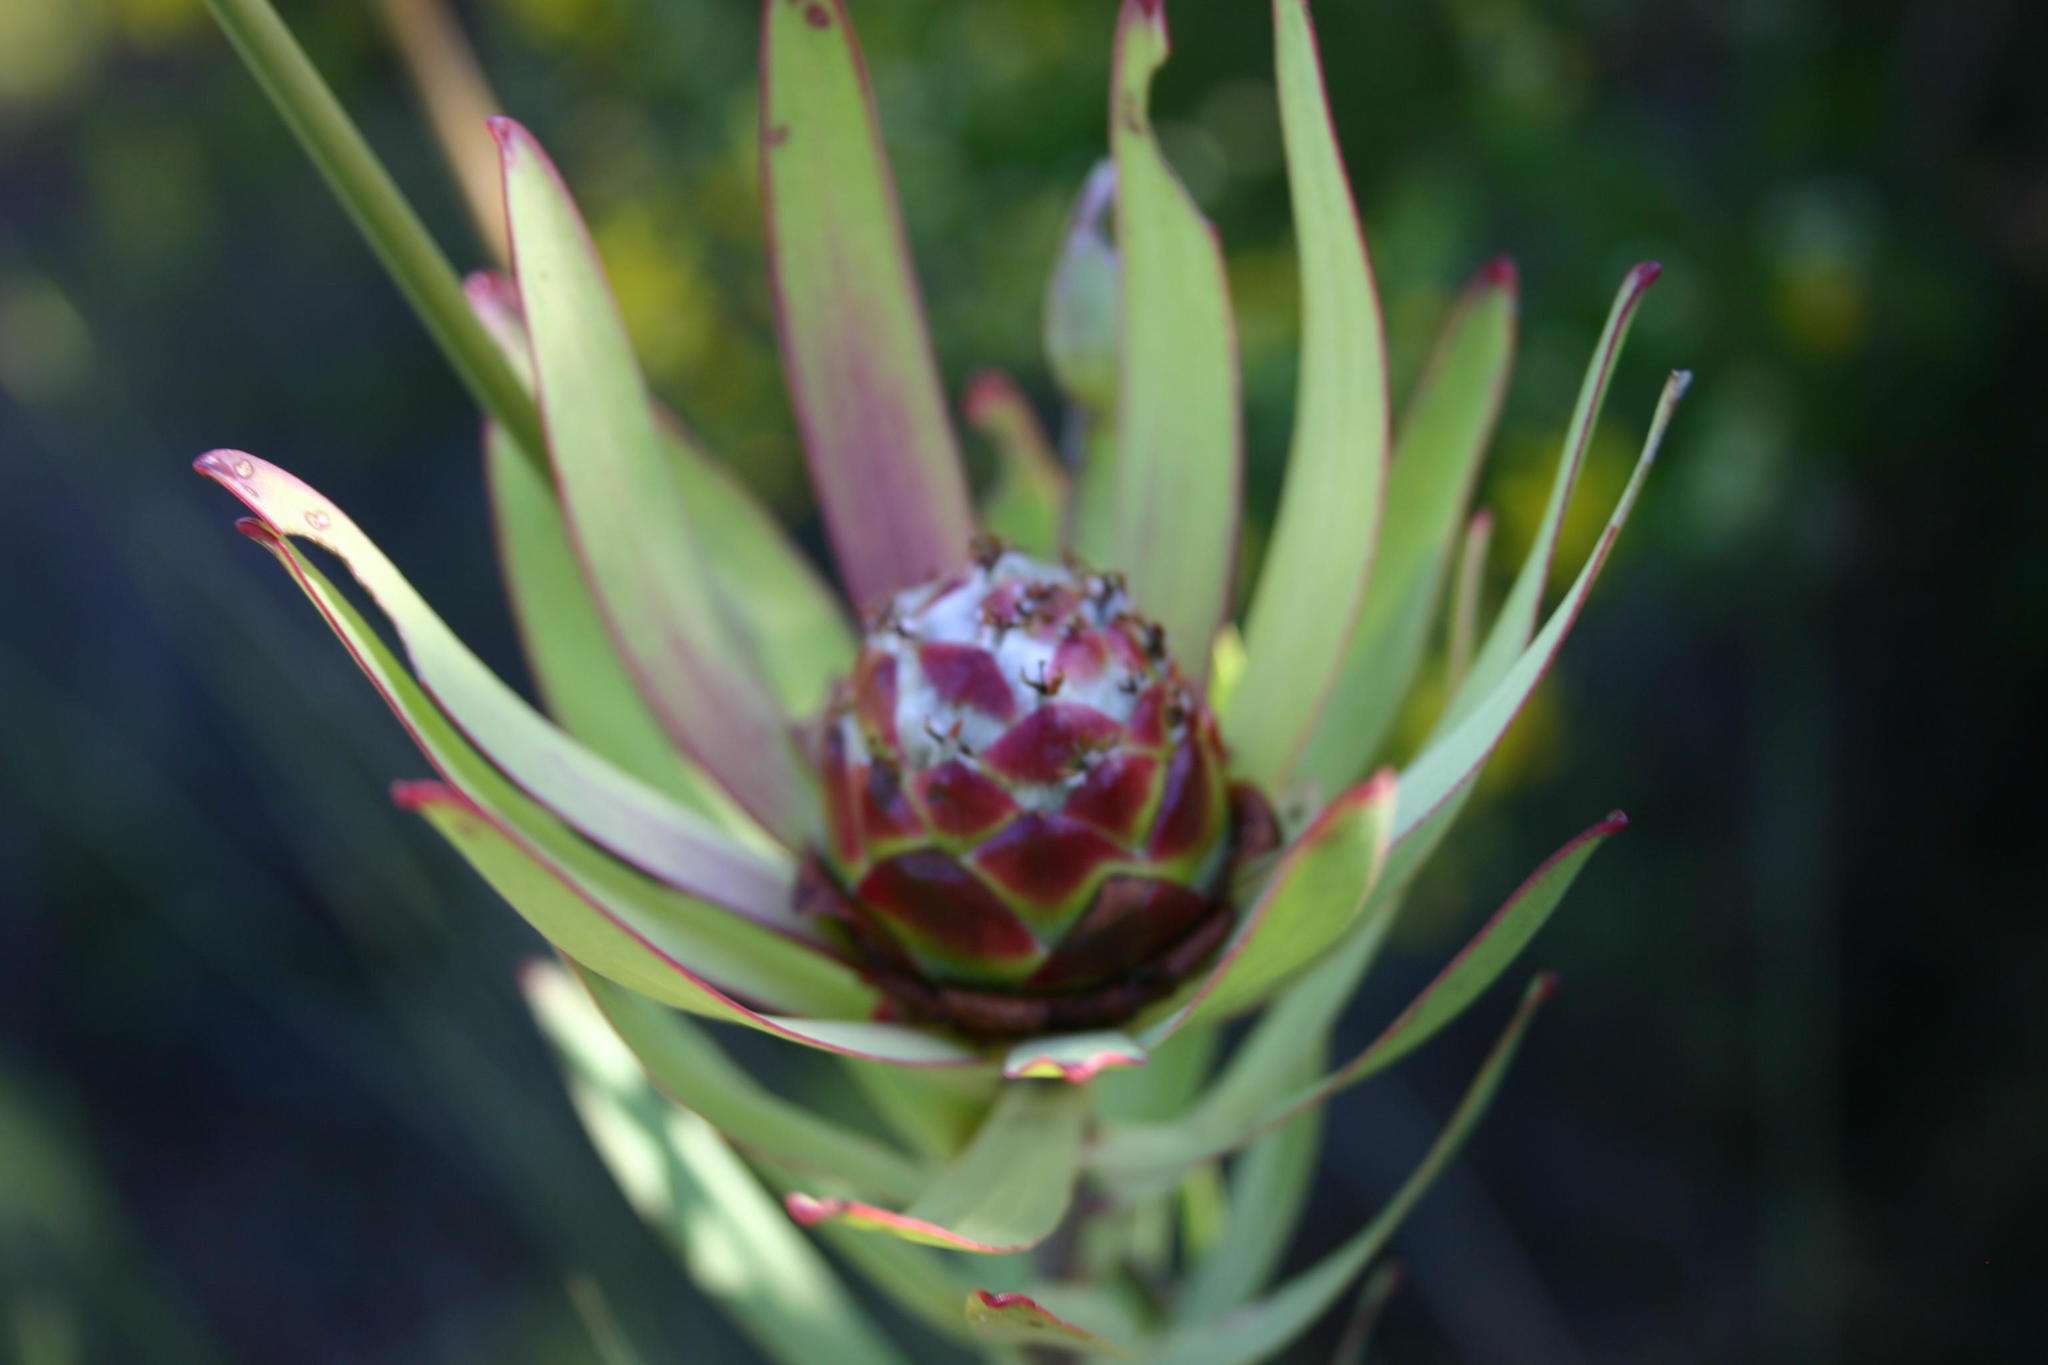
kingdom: Plantae
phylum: Tracheophyta
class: Magnoliopsida
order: Proteales
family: Proteaceae
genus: Leucadendron
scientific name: Leucadendron tradouwense
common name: Tradouw conebush
